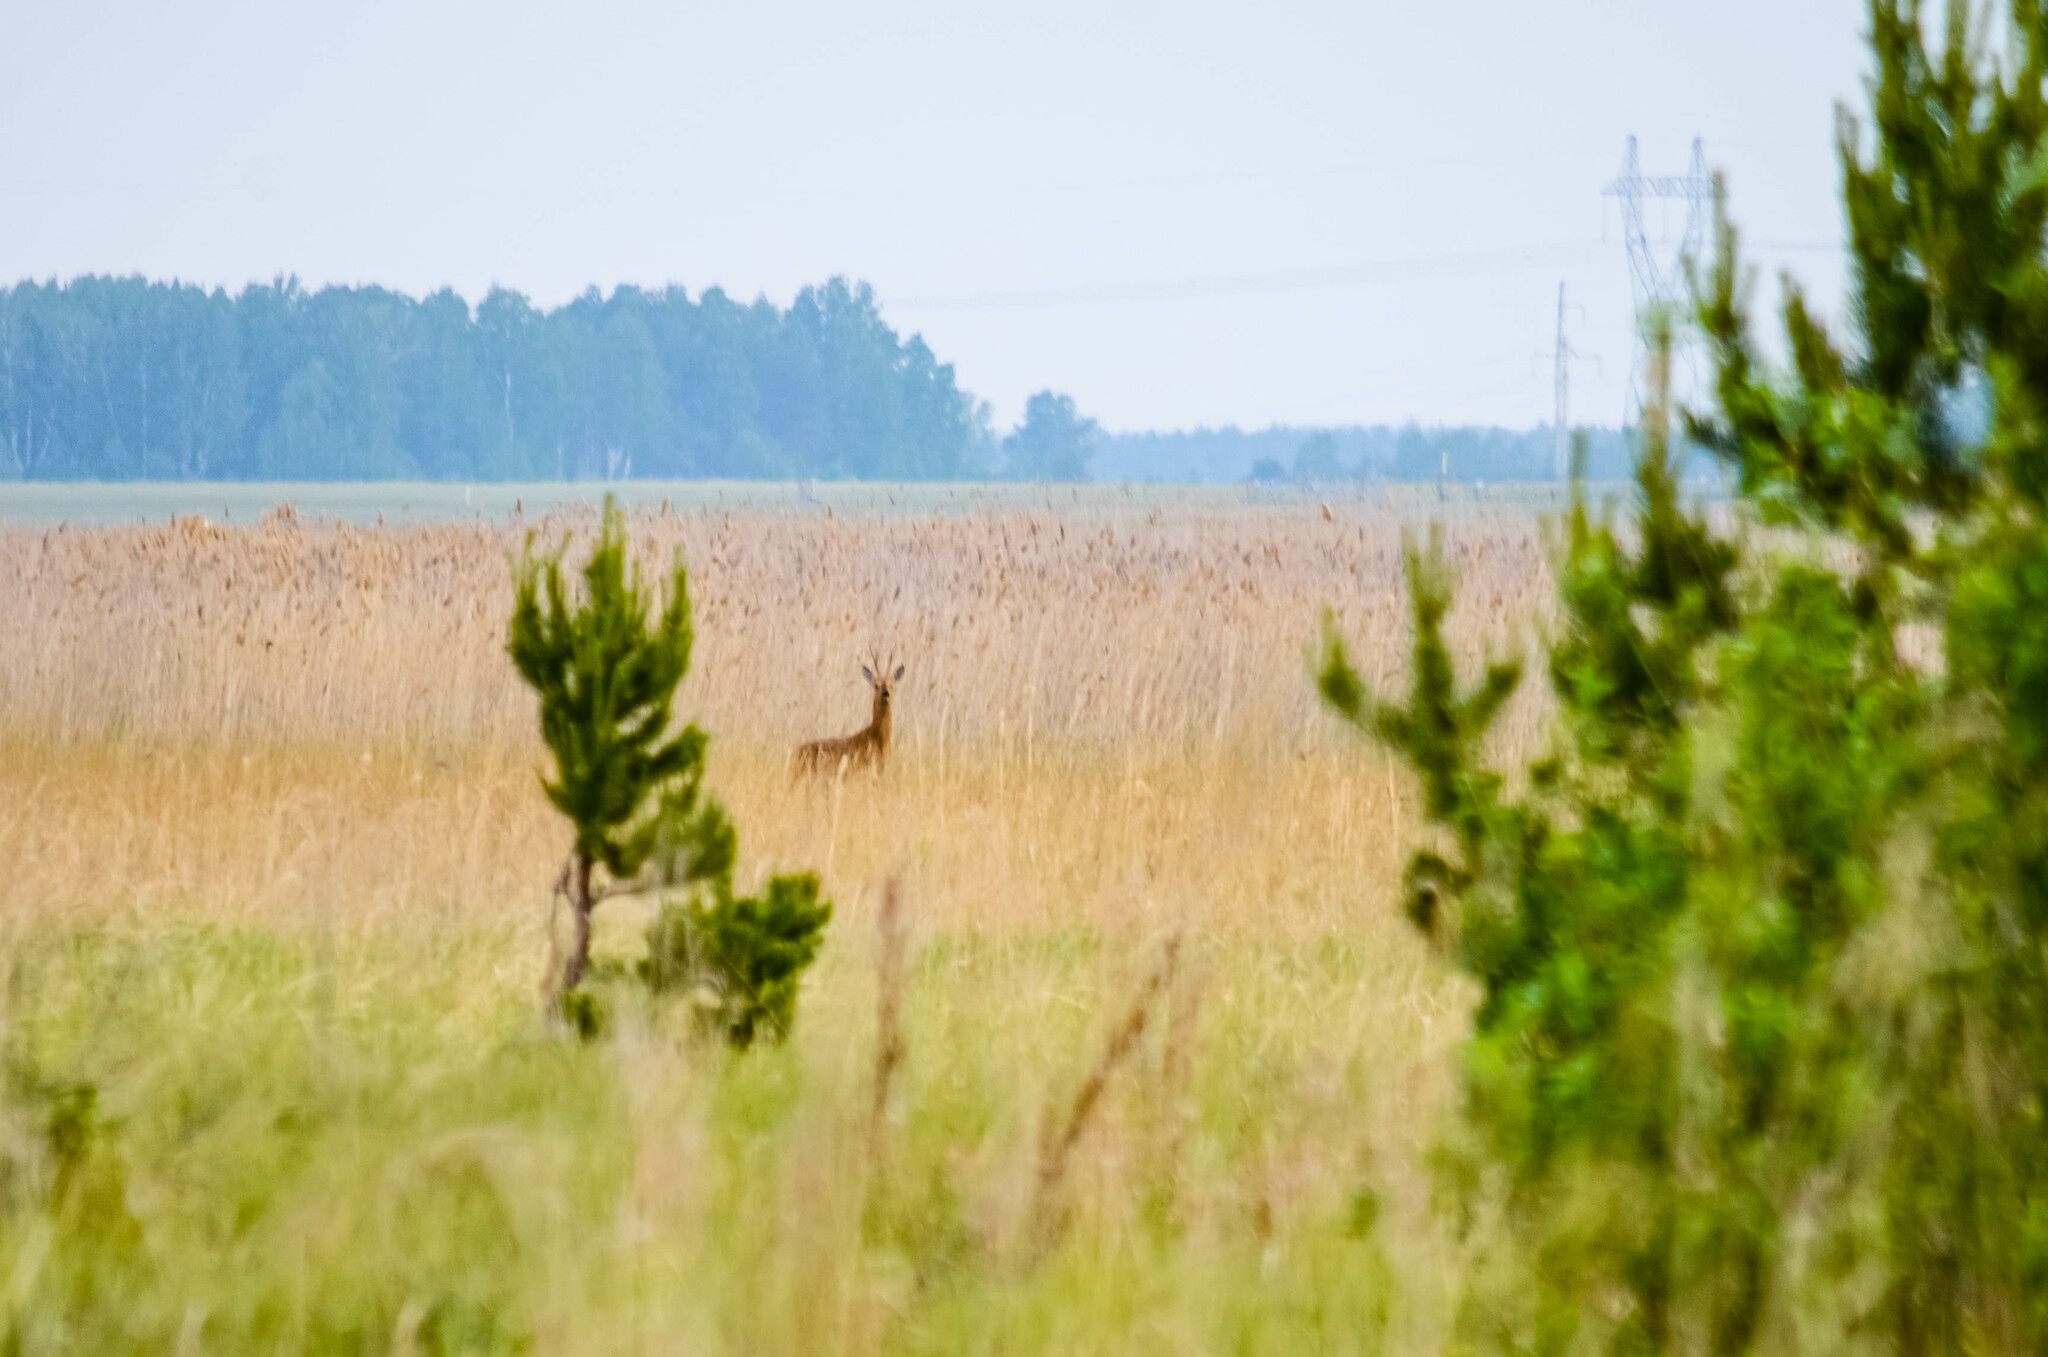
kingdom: Animalia
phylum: Chordata
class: Mammalia
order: Artiodactyla
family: Cervidae
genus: Capreolus
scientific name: Capreolus pygargus
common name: Siberian roe
